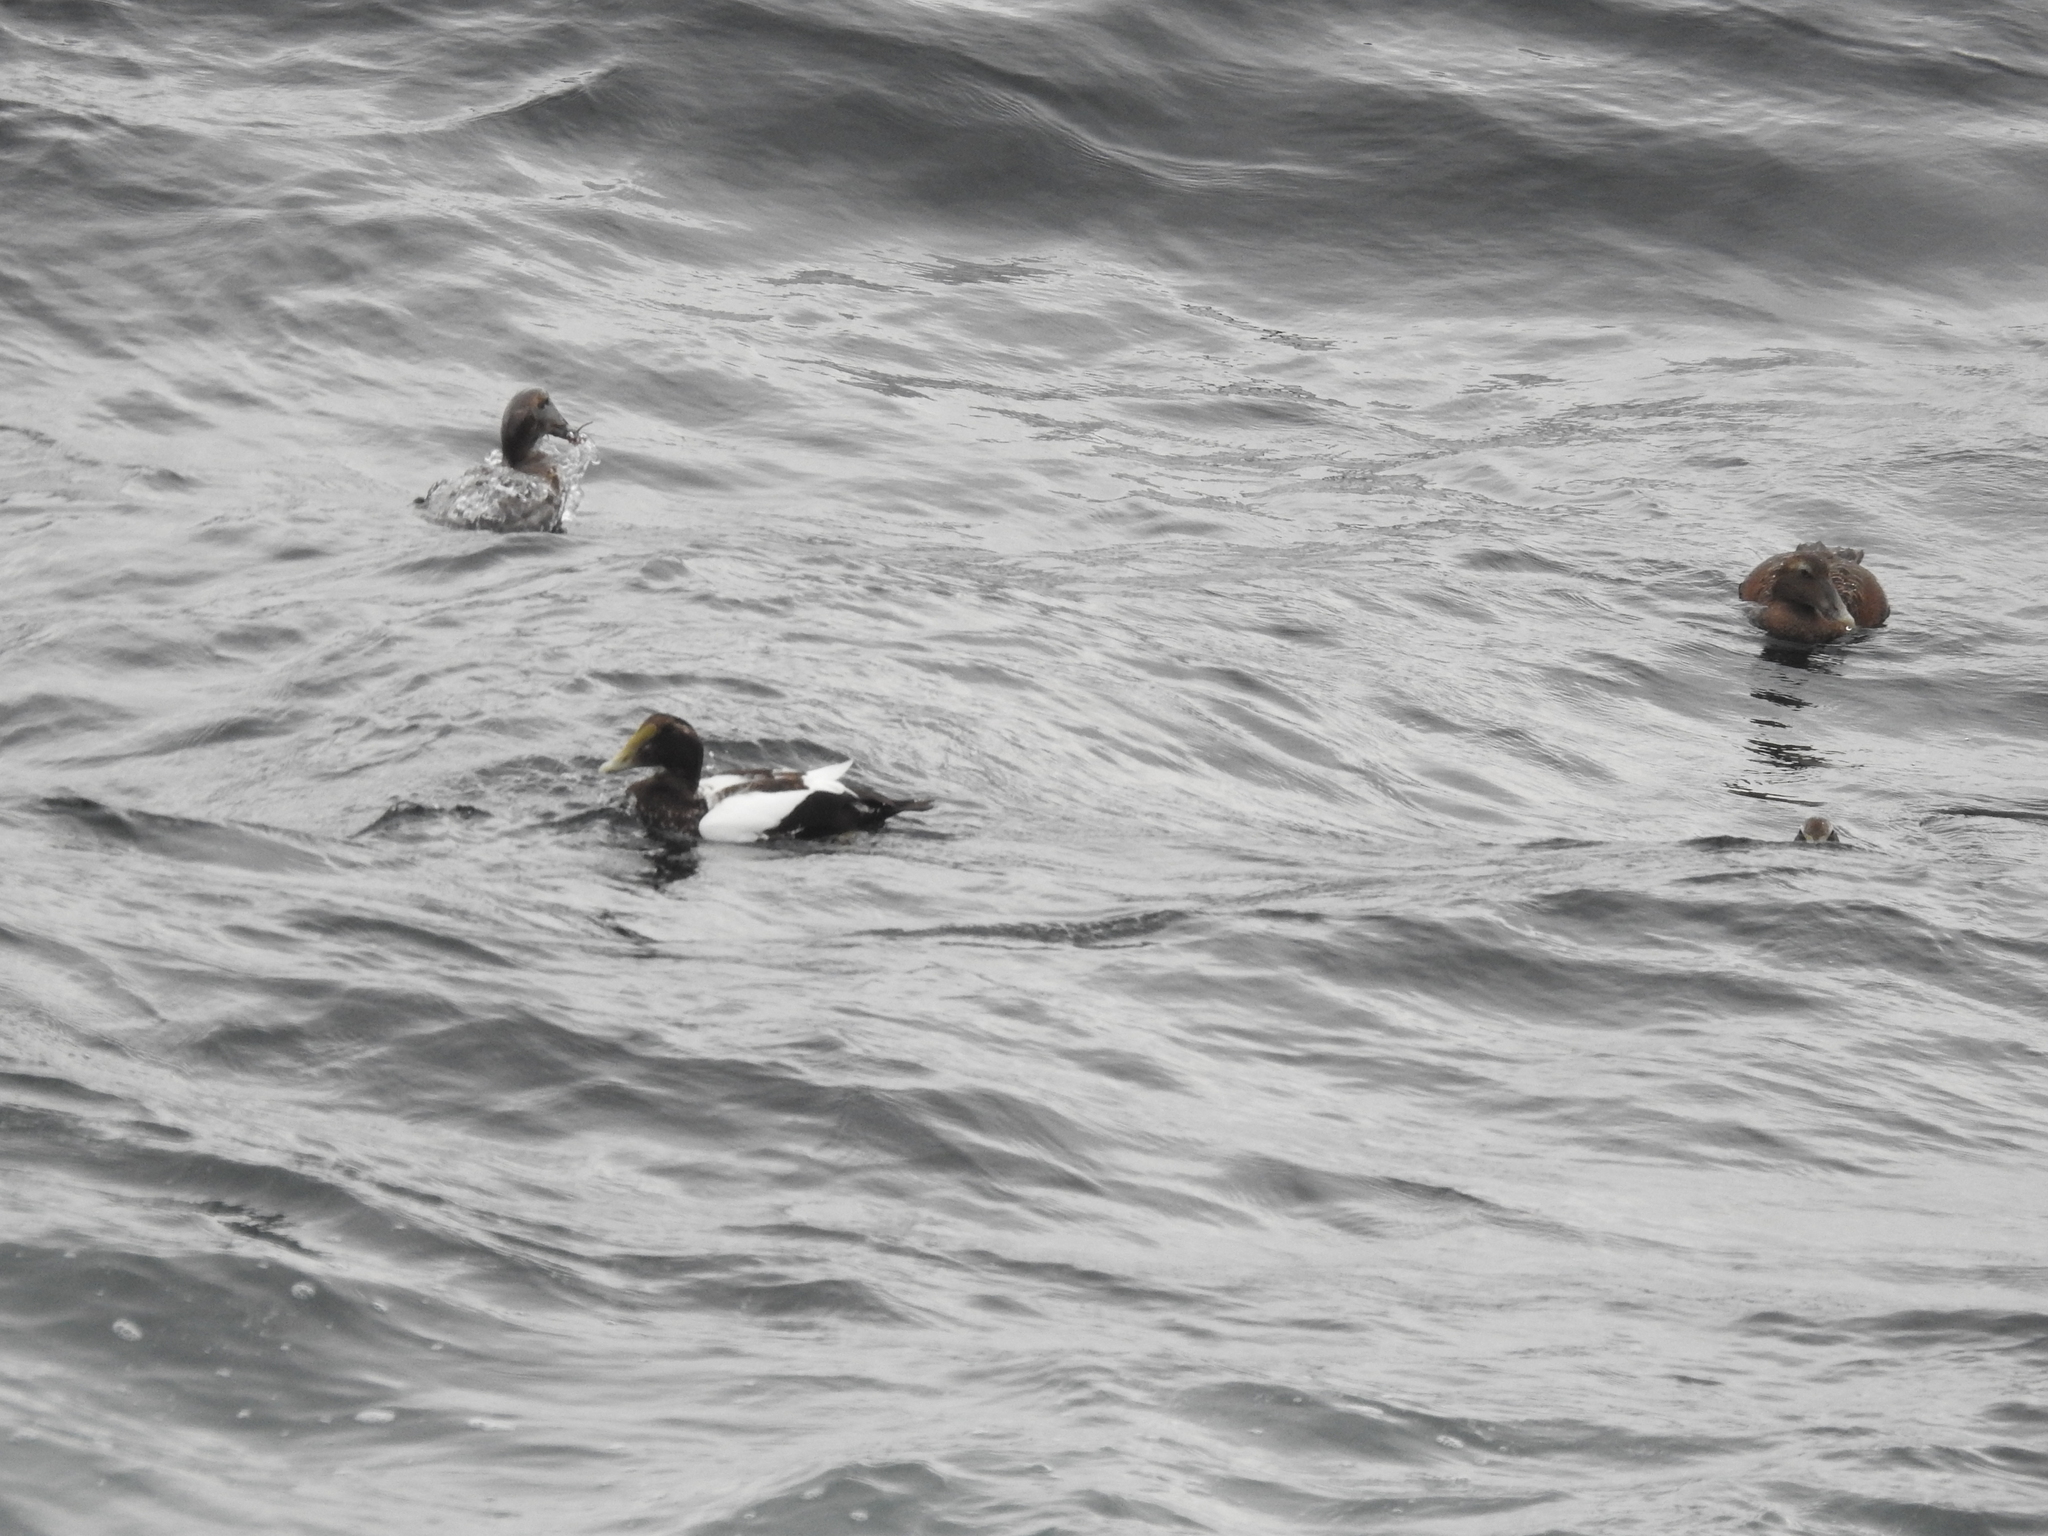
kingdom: Animalia
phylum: Chordata
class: Aves
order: Anseriformes
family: Anatidae
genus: Somateria
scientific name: Somateria mollissima
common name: Common eider
